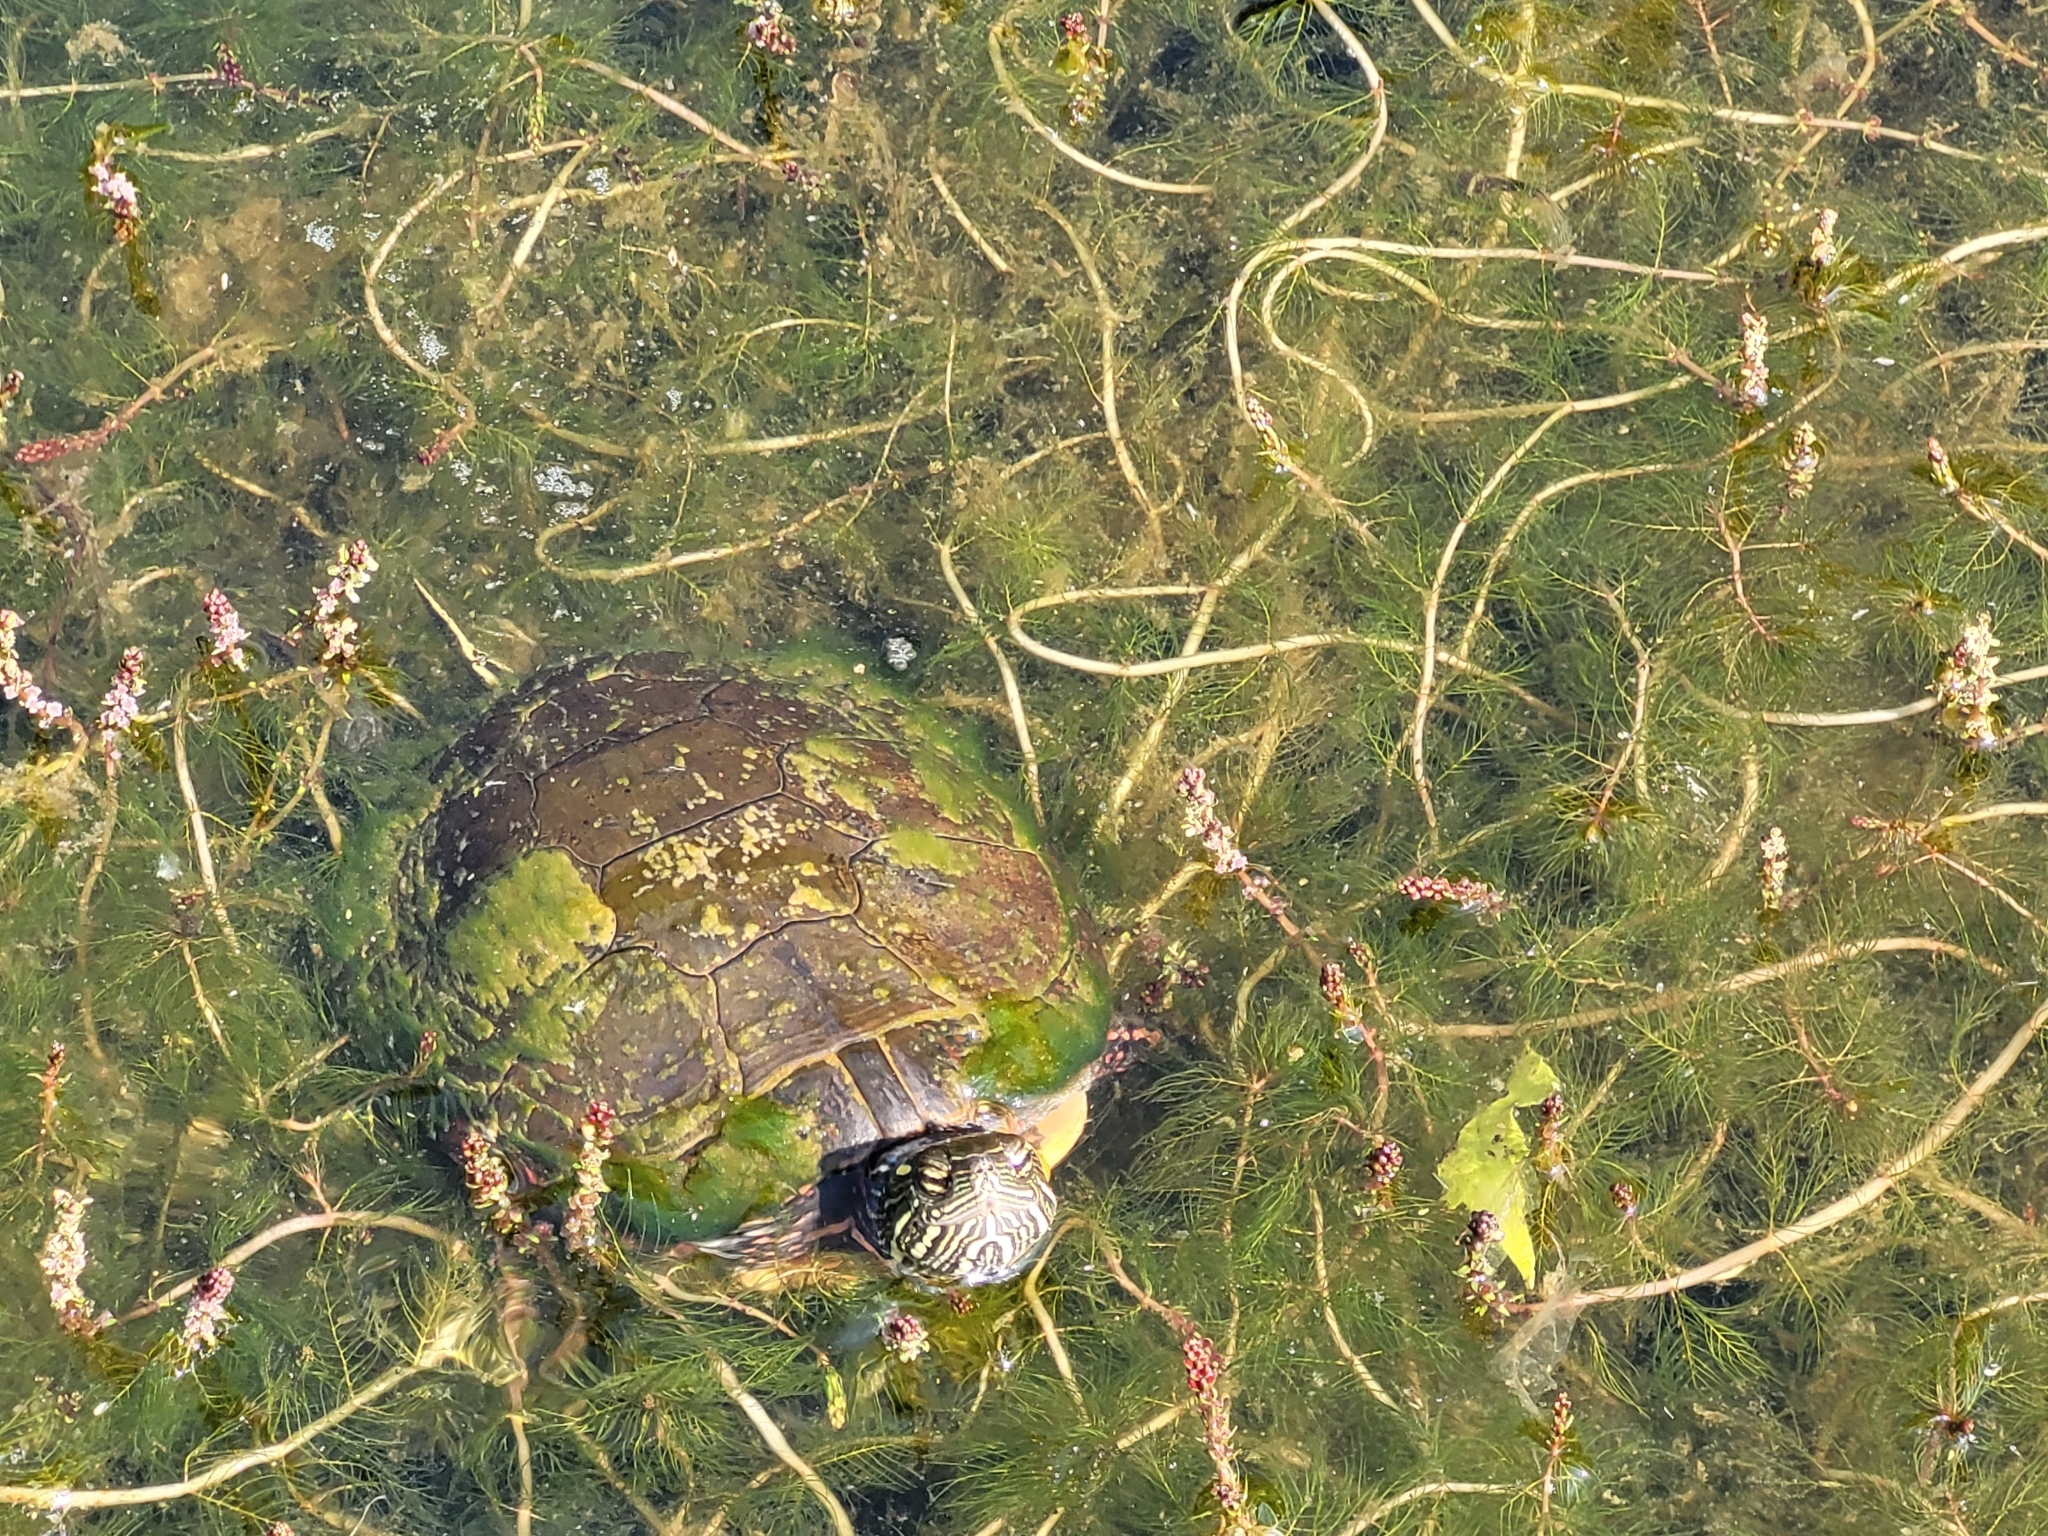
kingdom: Animalia
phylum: Chordata
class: Testudines
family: Emydidae
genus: Chrysemys
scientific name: Chrysemys picta
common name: Painted turtle
